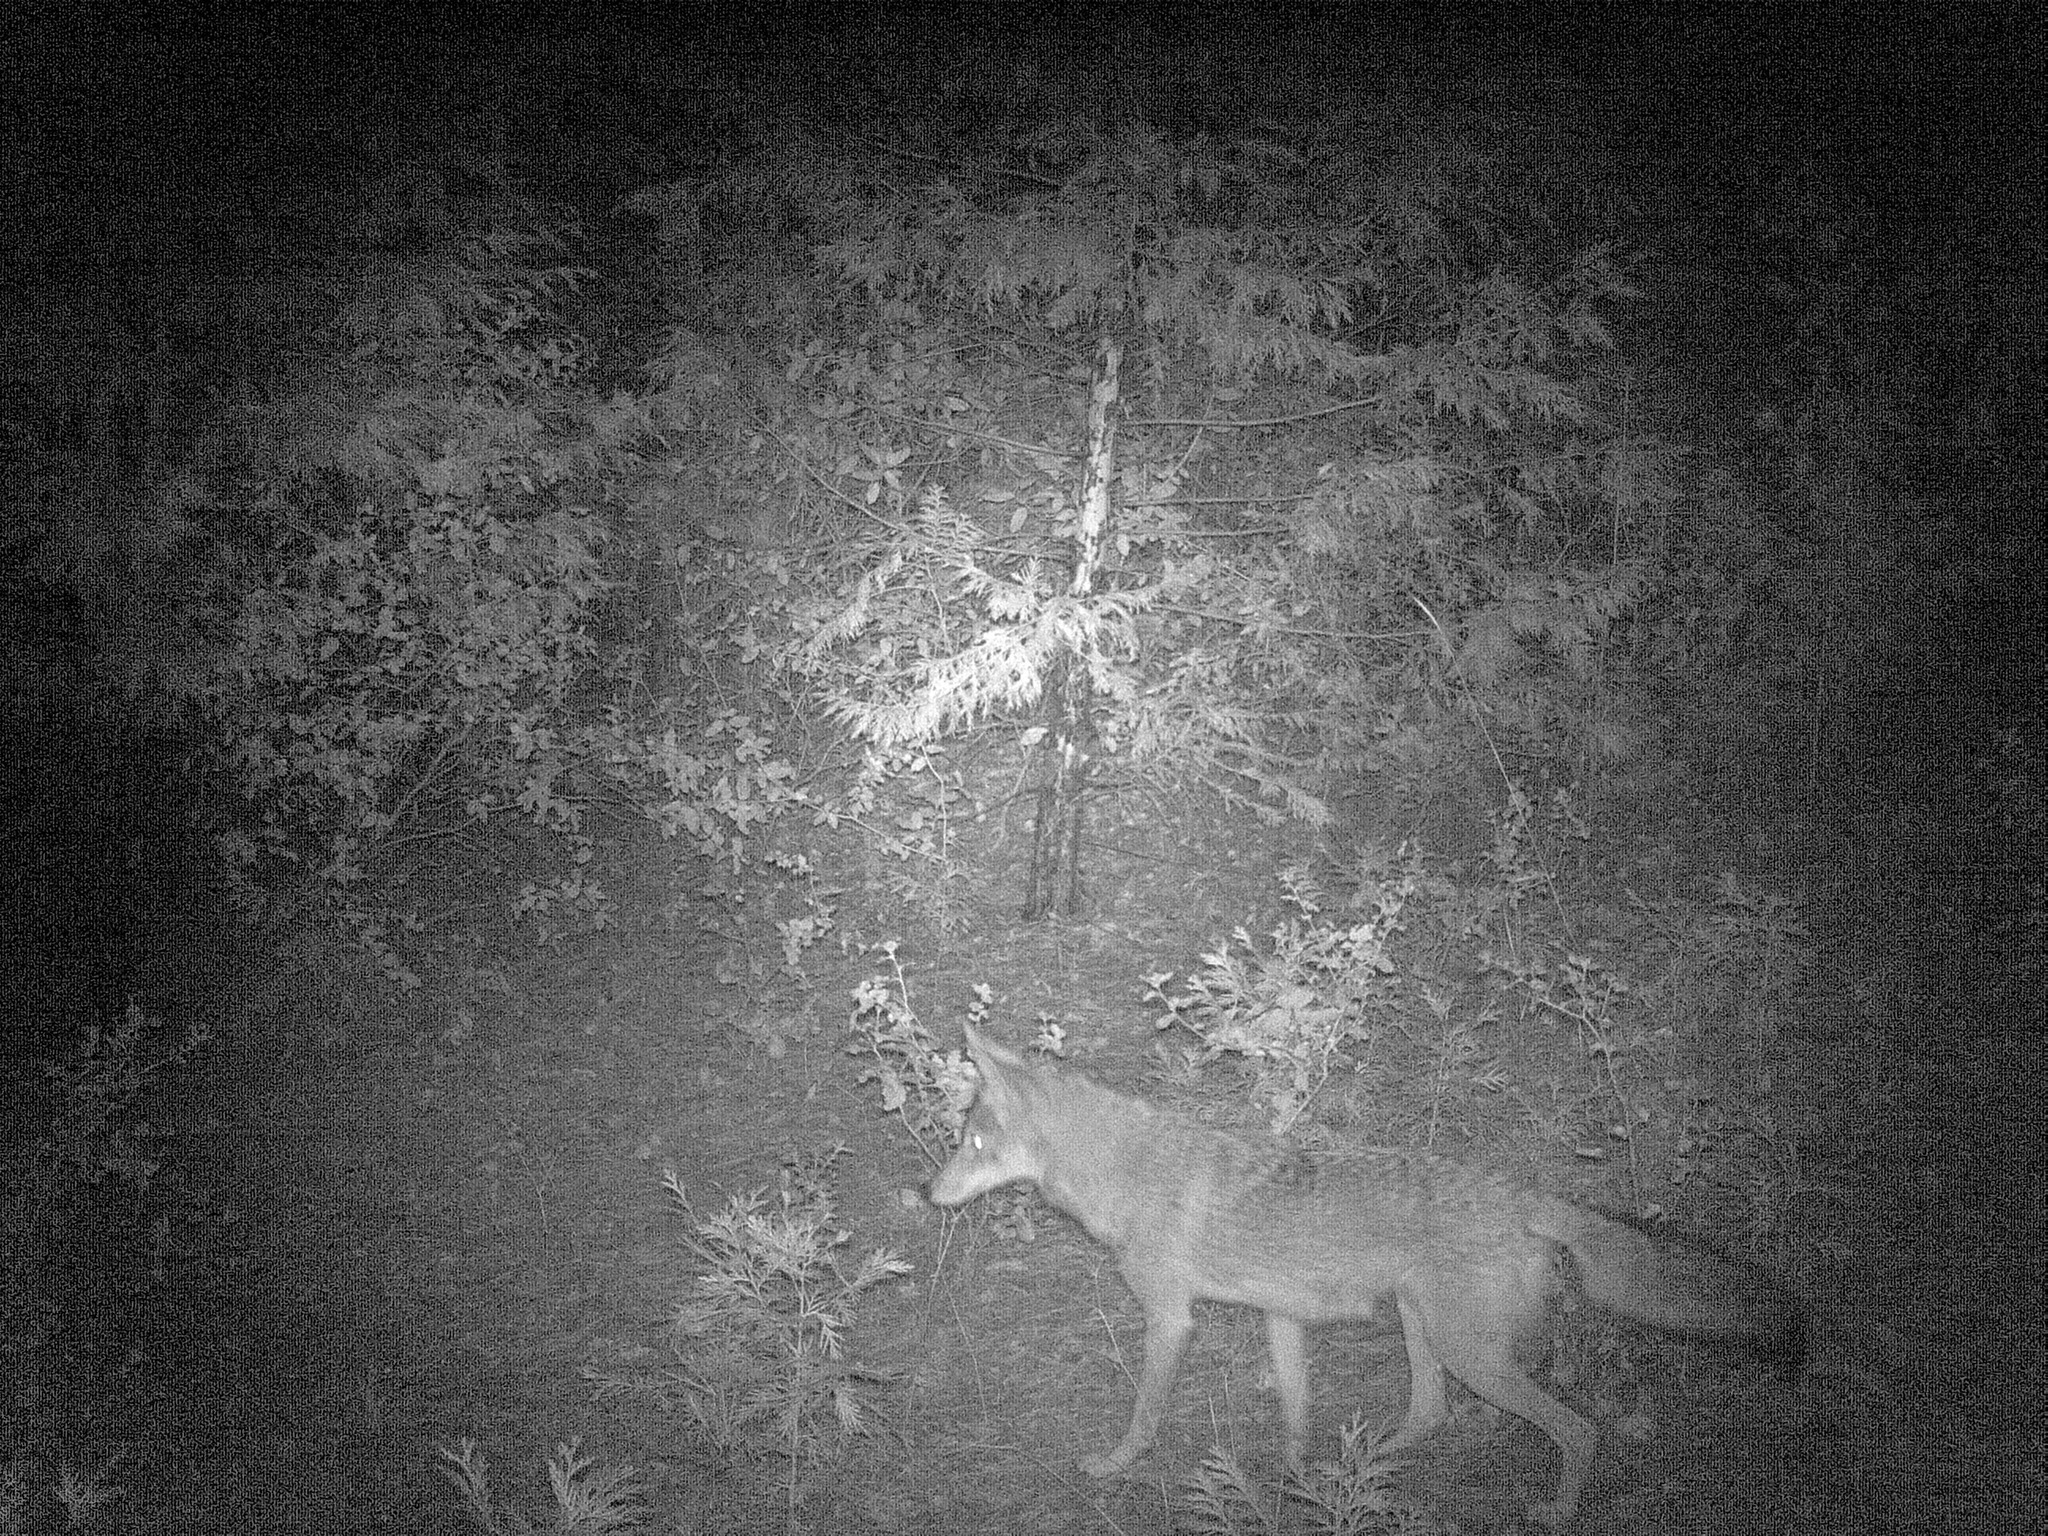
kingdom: Animalia
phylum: Chordata
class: Mammalia
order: Carnivora
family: Canidae
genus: Canis
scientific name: Canis latrans
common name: Coyote
